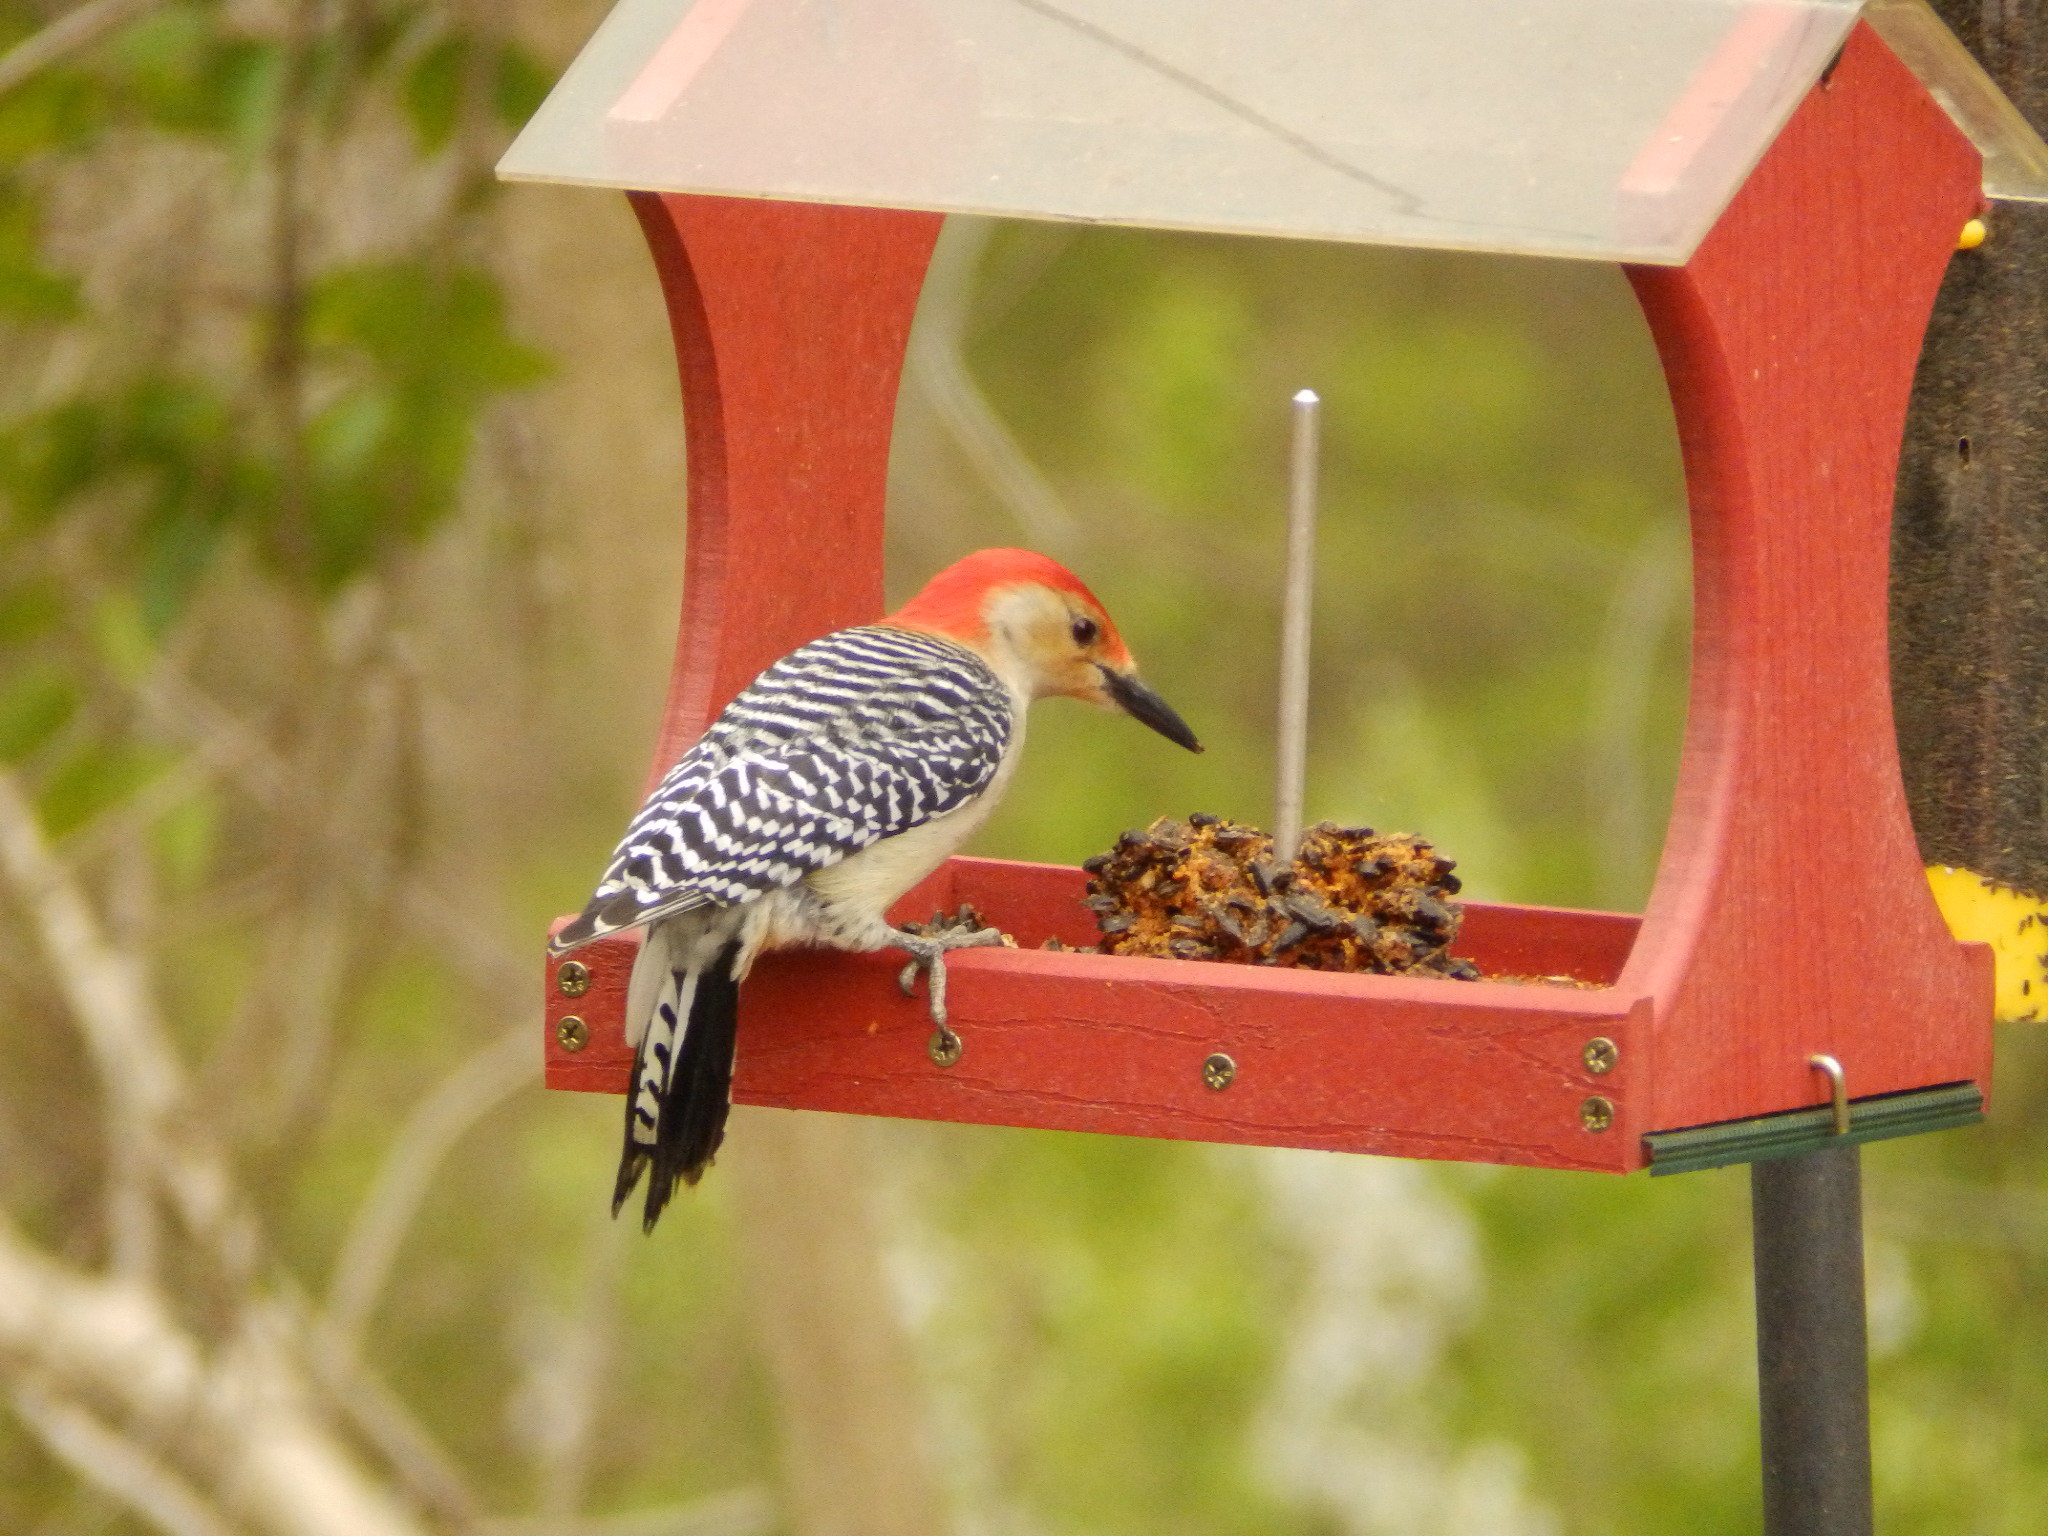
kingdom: Animalia
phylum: Chordata
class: Aves
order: Piciformes
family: Picidae
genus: Melanerpes
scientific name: Melanerpes carolinus
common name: Red-bellied woodpecker
